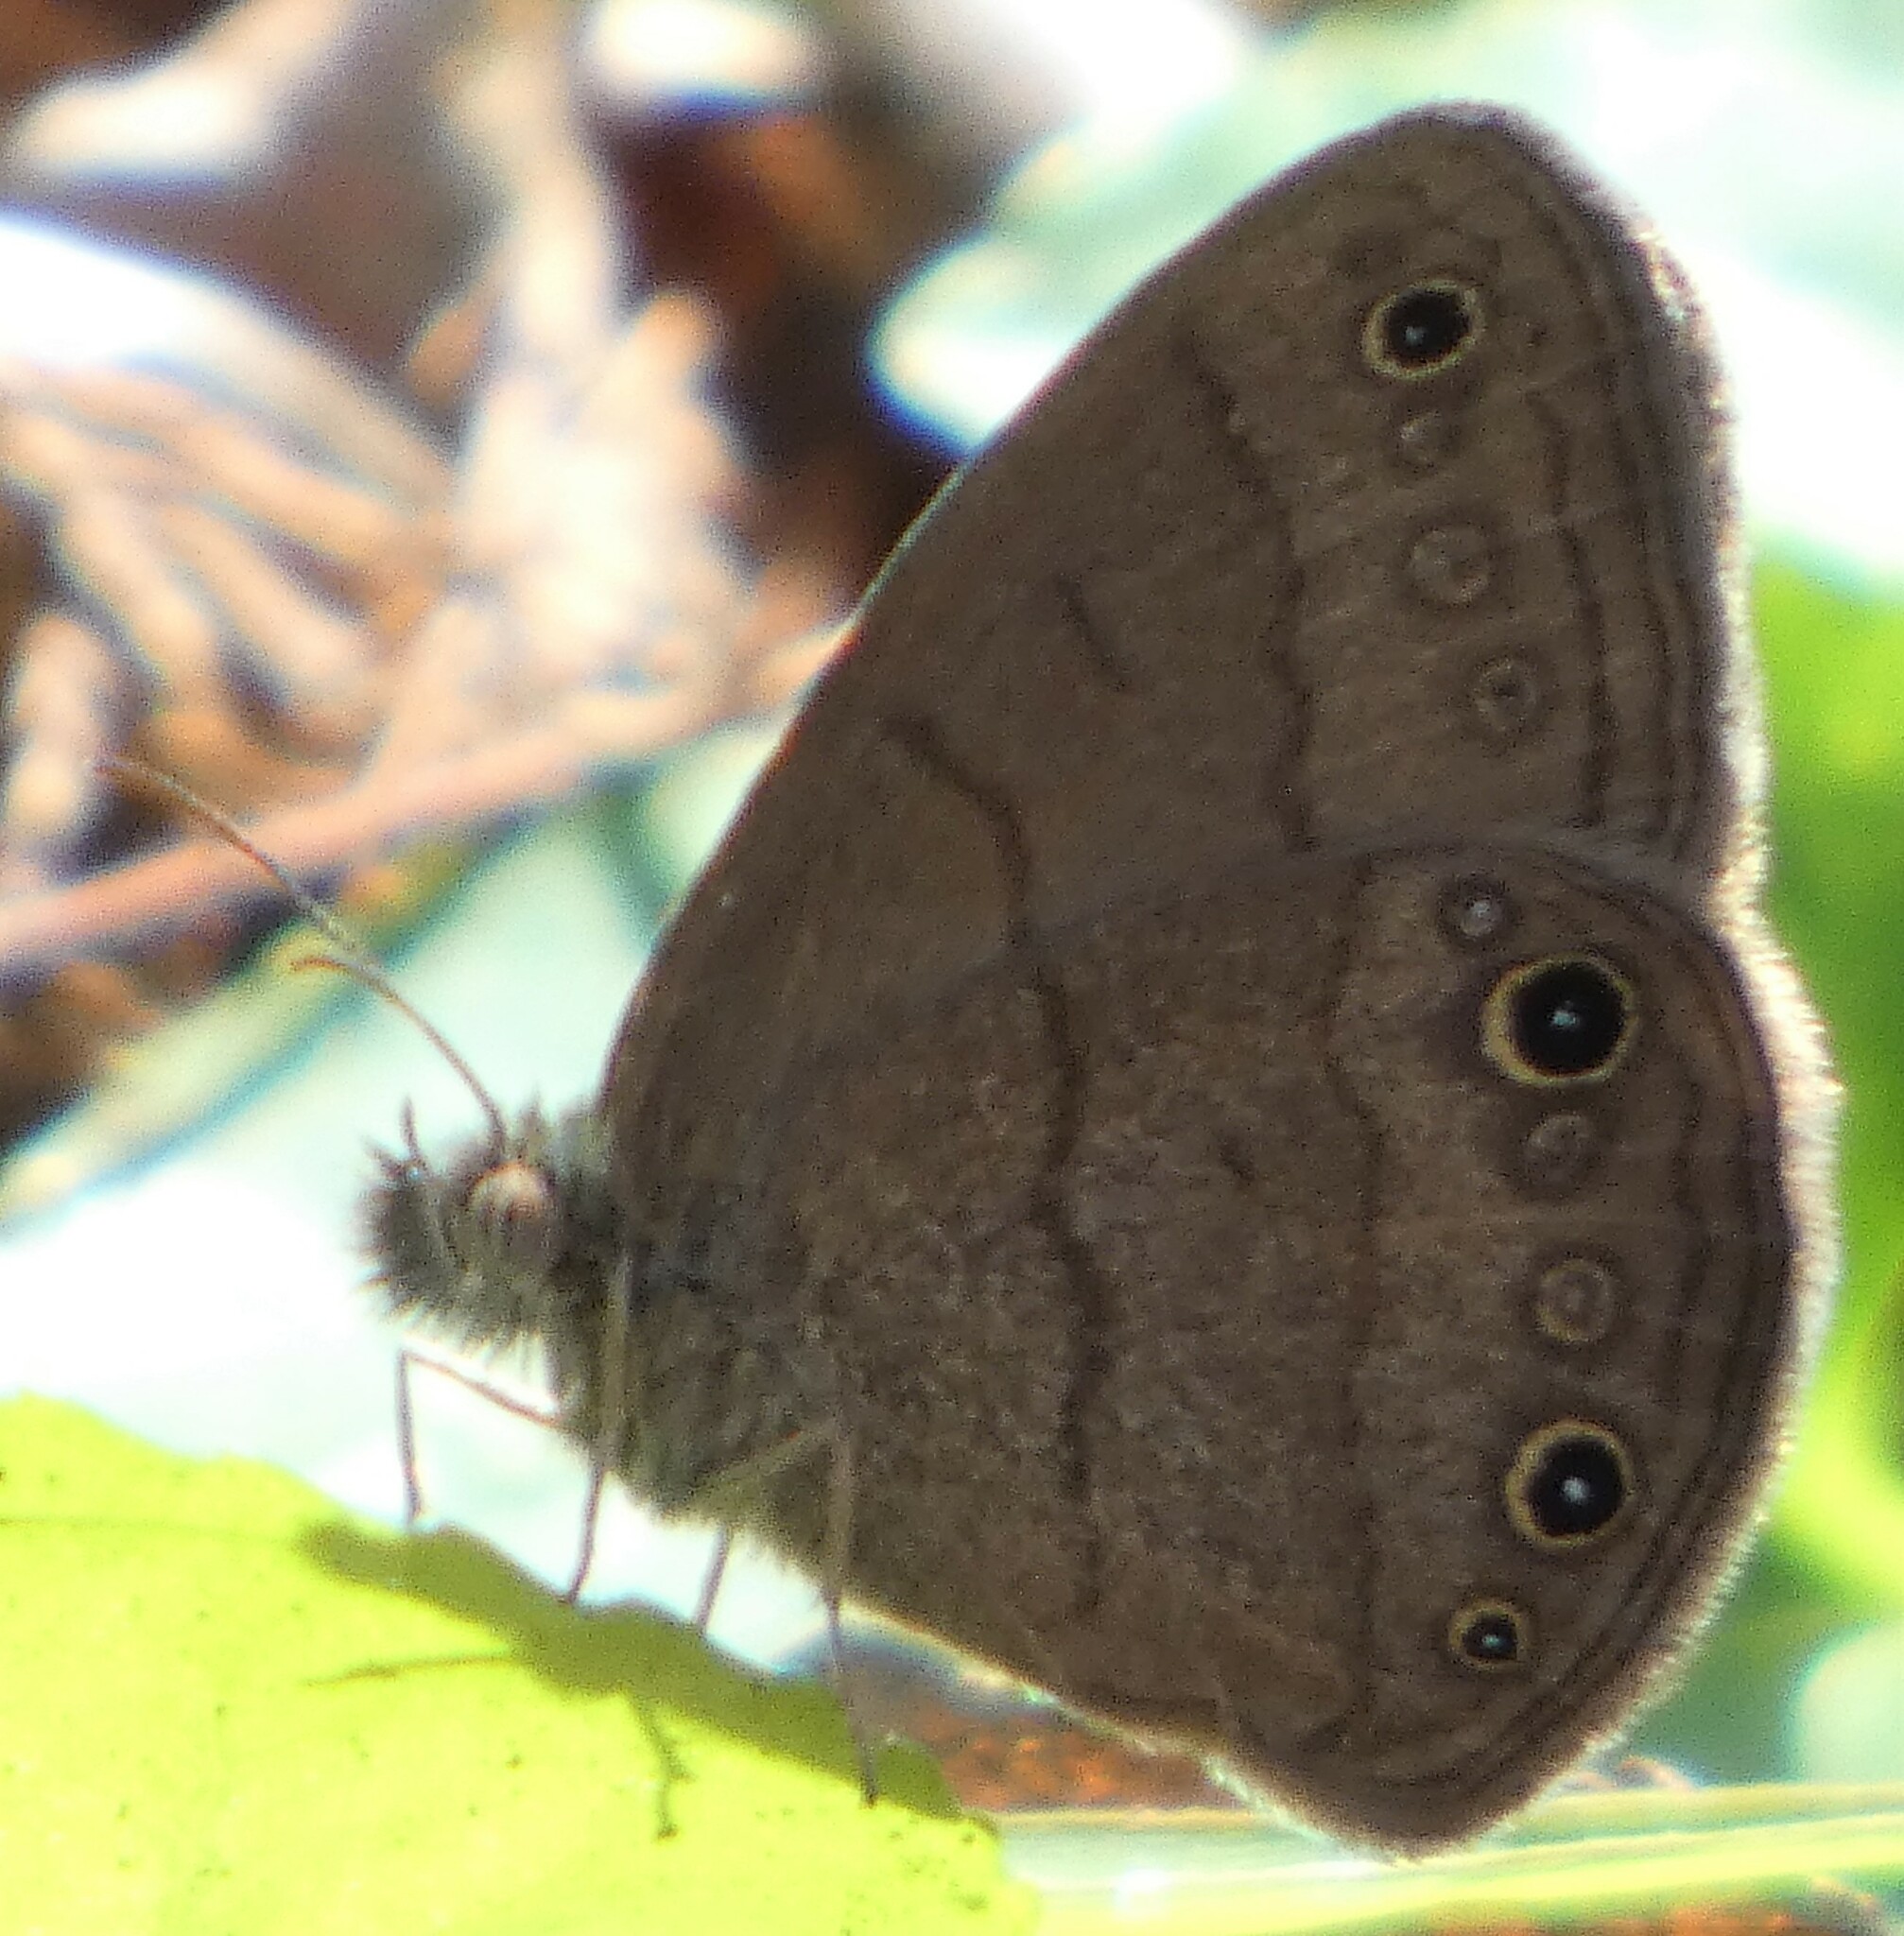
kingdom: Animalia
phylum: Arthropoda
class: Insecta
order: Lepidoptera
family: Nymphalidae
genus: Hermeuptychia
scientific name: Hermeuptychia hermes
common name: Hermes satyr
